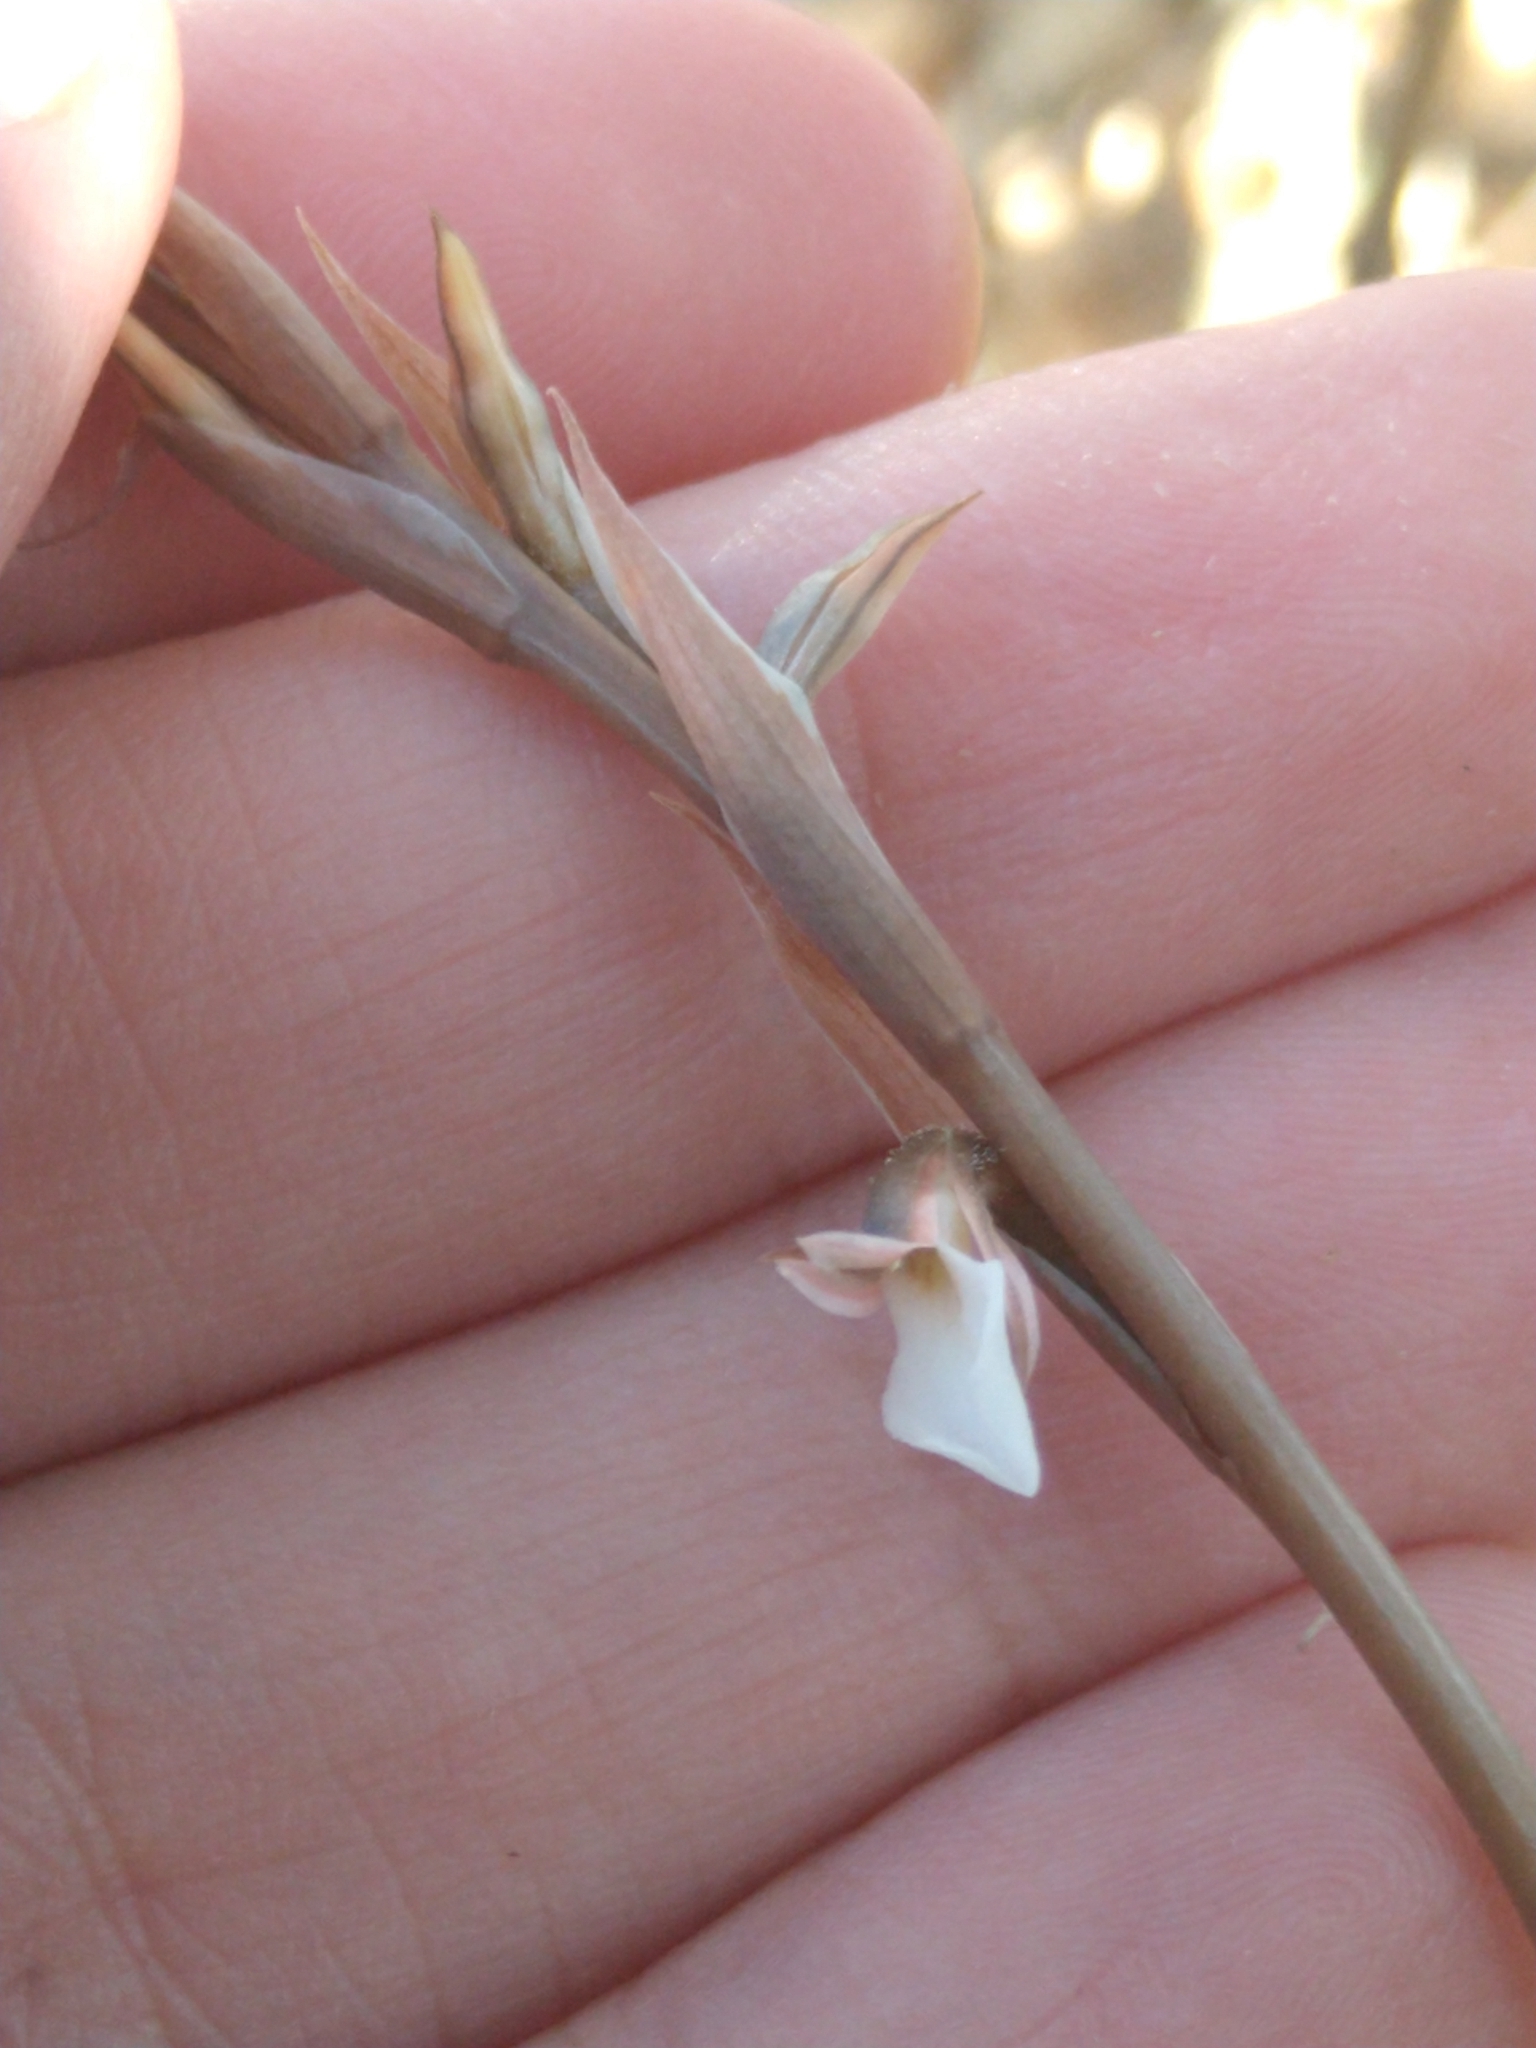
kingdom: Plantae
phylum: Tracheophyta
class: Liliopsida
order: Asparagales
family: Orchidaceae
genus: Greenwoodiella
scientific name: Greenwoodiella micrantha
